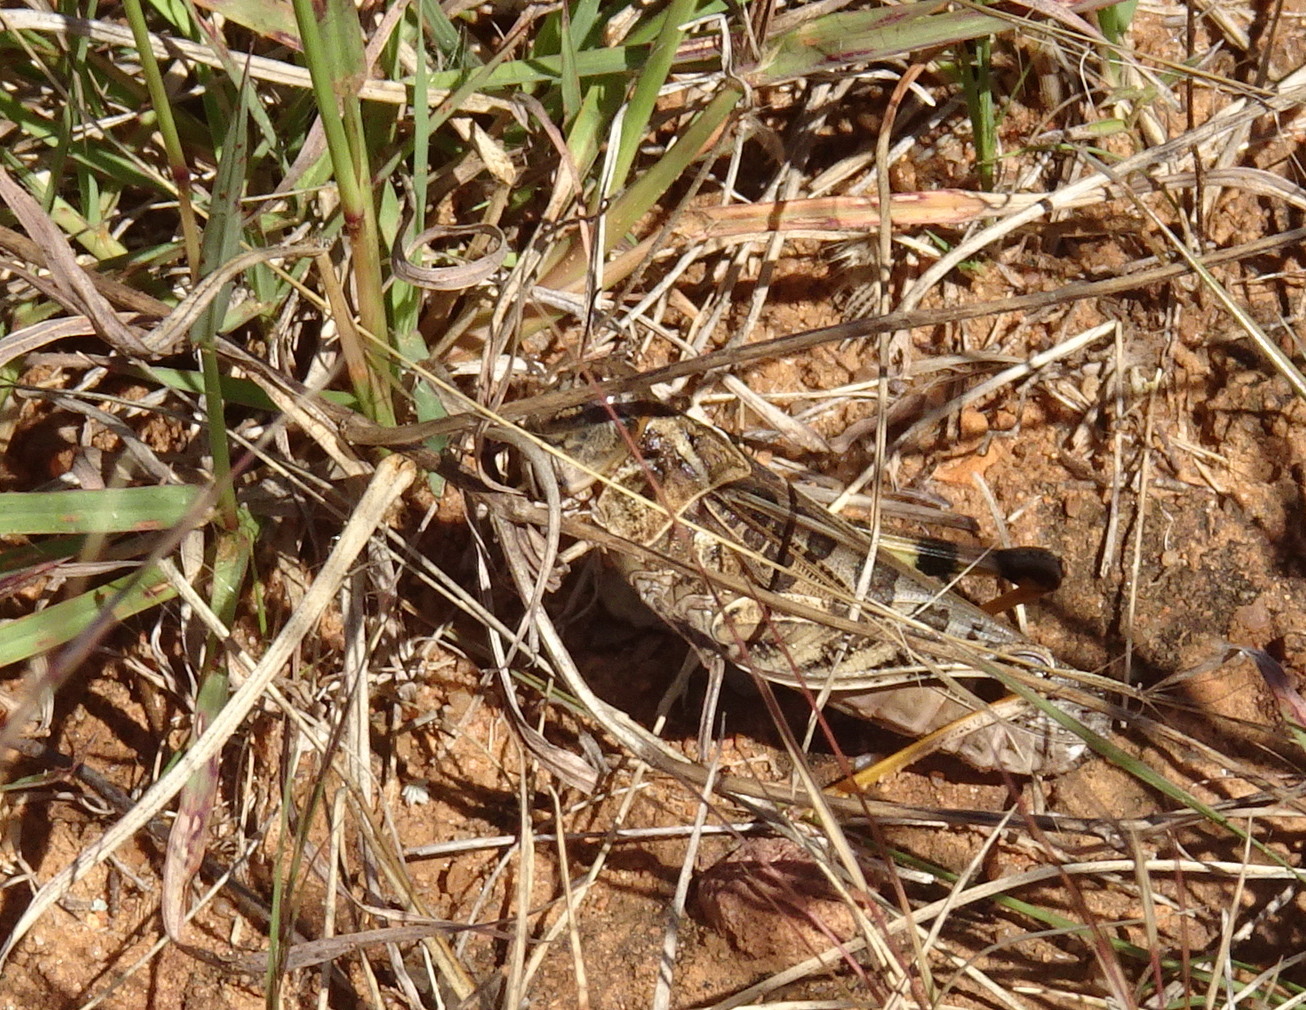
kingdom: Animalia
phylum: Arthropoda
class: Insecta
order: Orthoptera
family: Acrididae
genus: Hippiscus
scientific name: Hippiscus ocelote
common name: Wrinkled grasshopper
